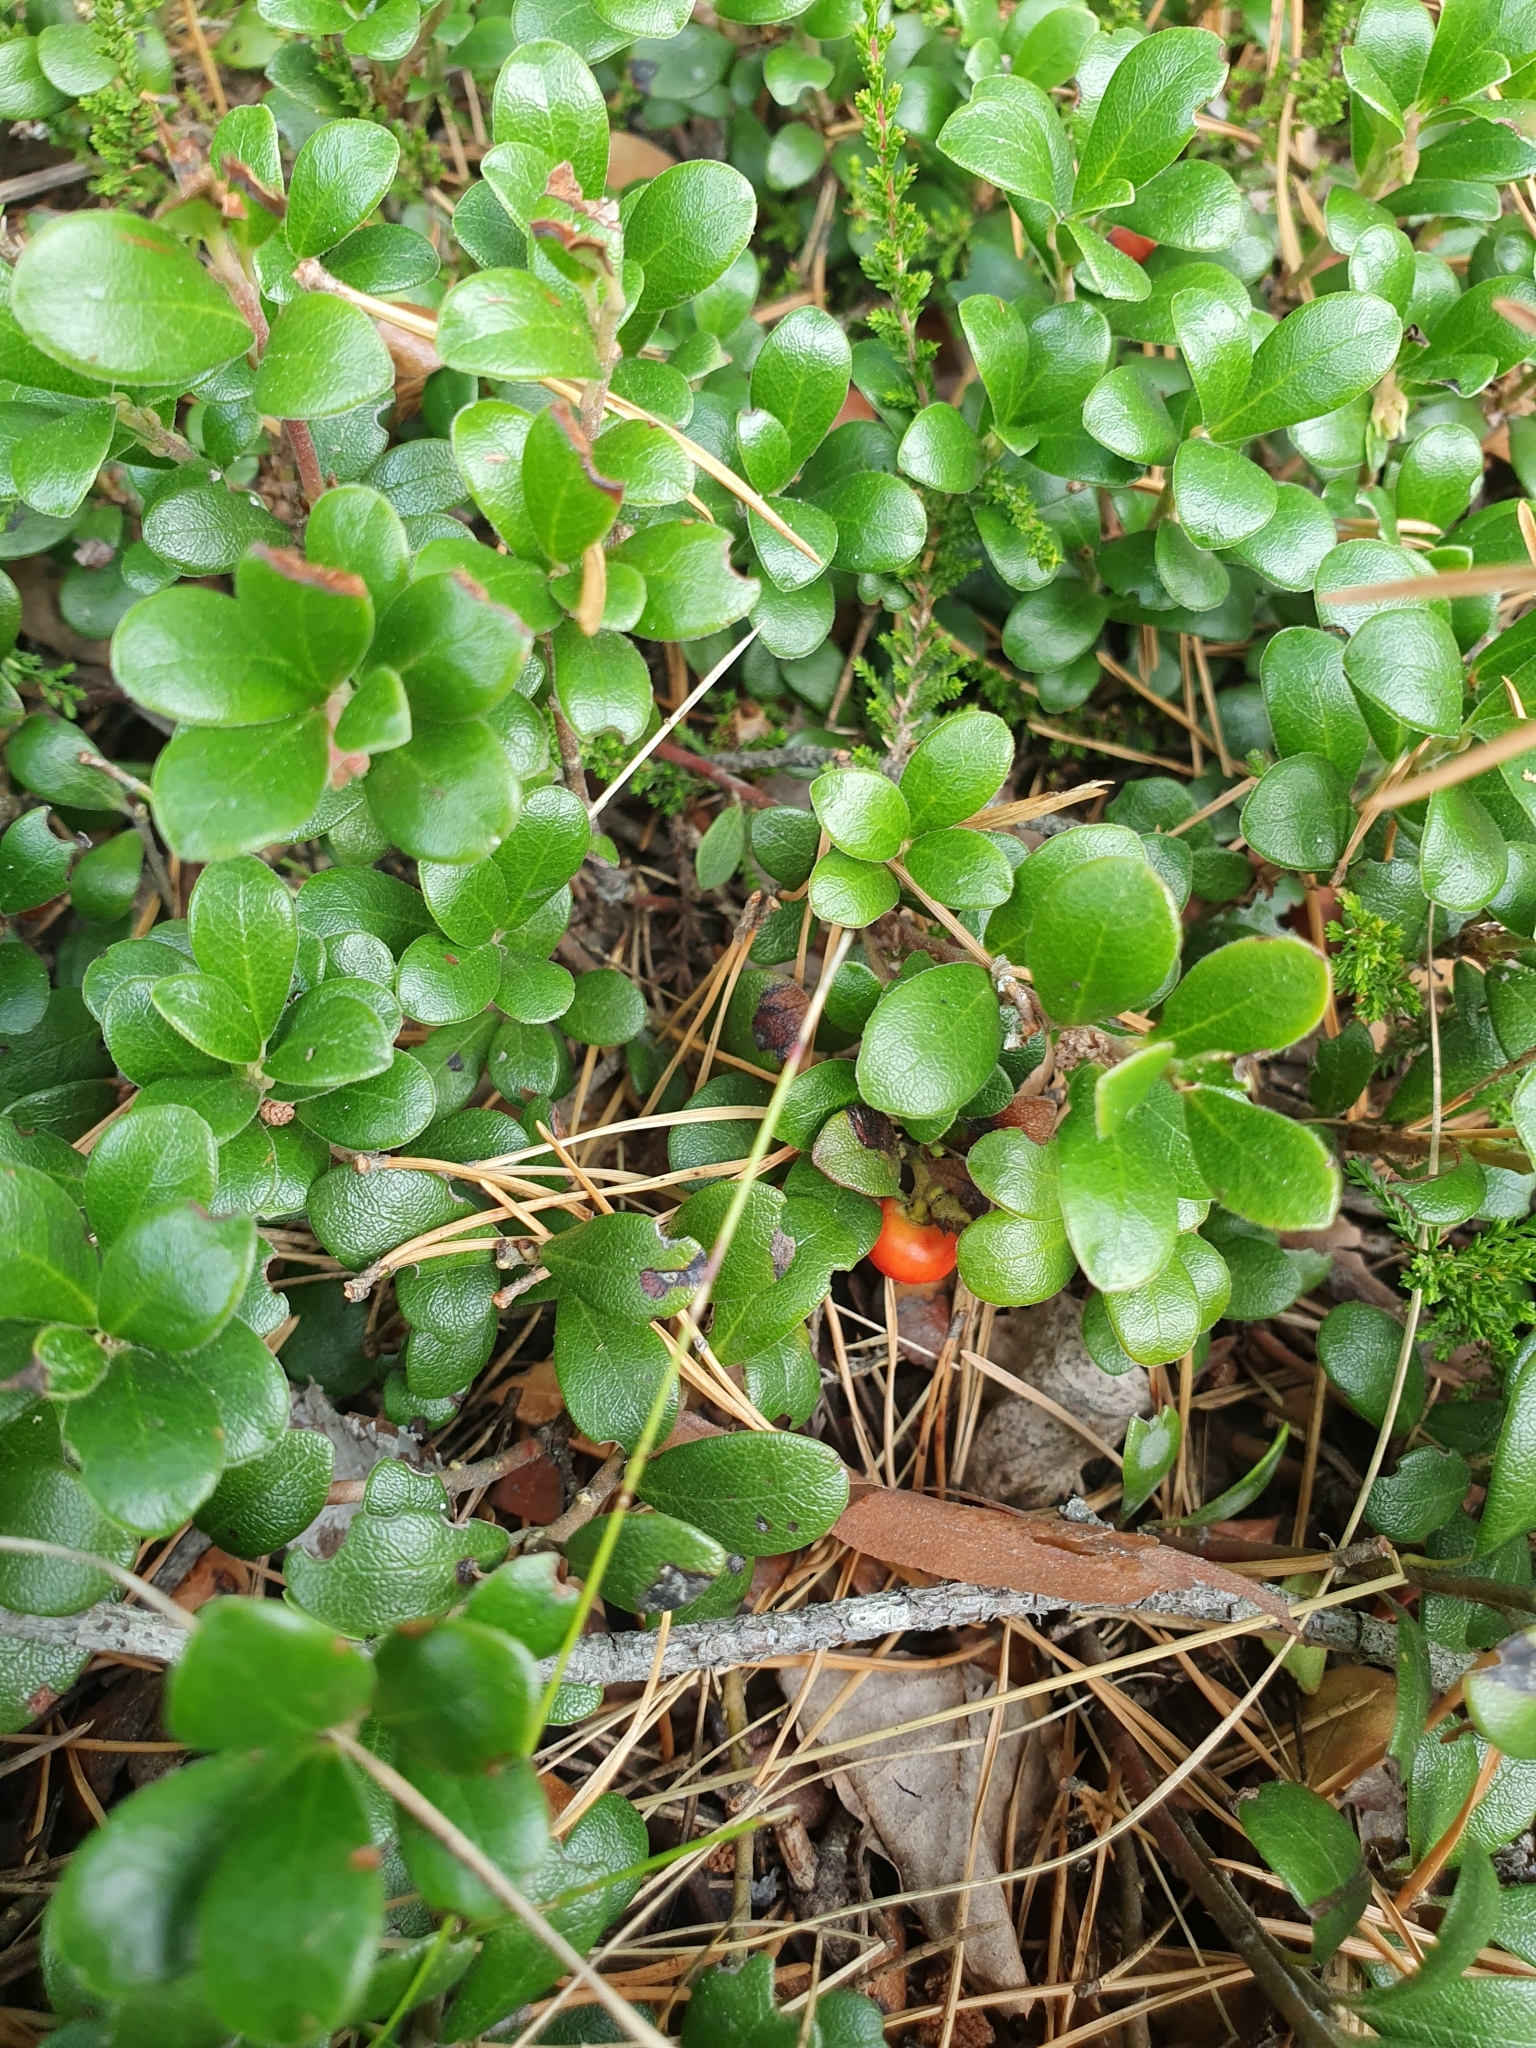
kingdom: Plantae
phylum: Tracheophyta
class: Magnoliopsida
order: Ericales
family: Ericaceae
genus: Arctostaphylos
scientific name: Arctostaphylos uva-ursi
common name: Bearberry
